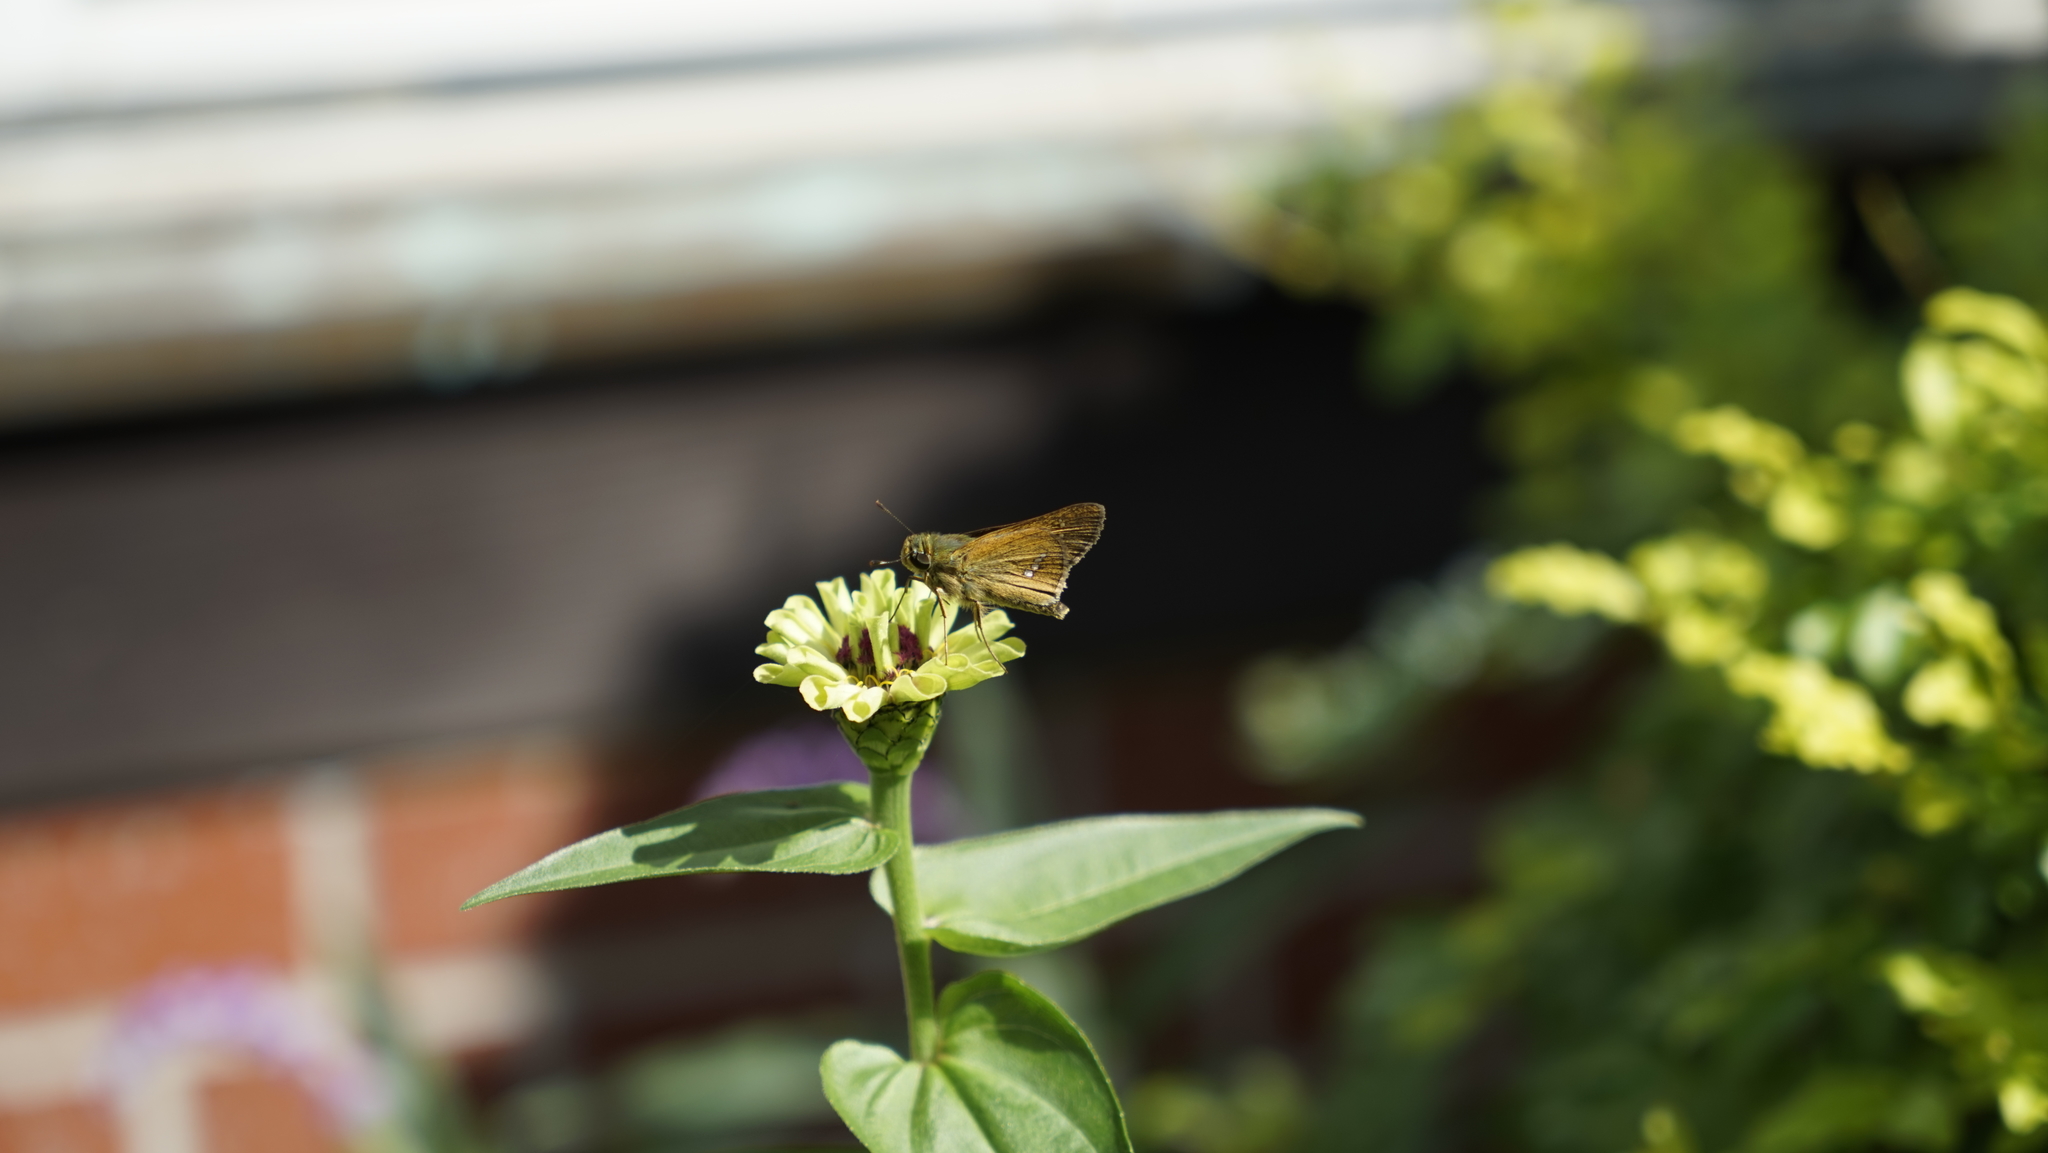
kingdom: Animalia
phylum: Arthropoda
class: Insecta
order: Lepidoptera
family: Hesperiidae
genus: Parnara
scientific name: Parnara guttatus
